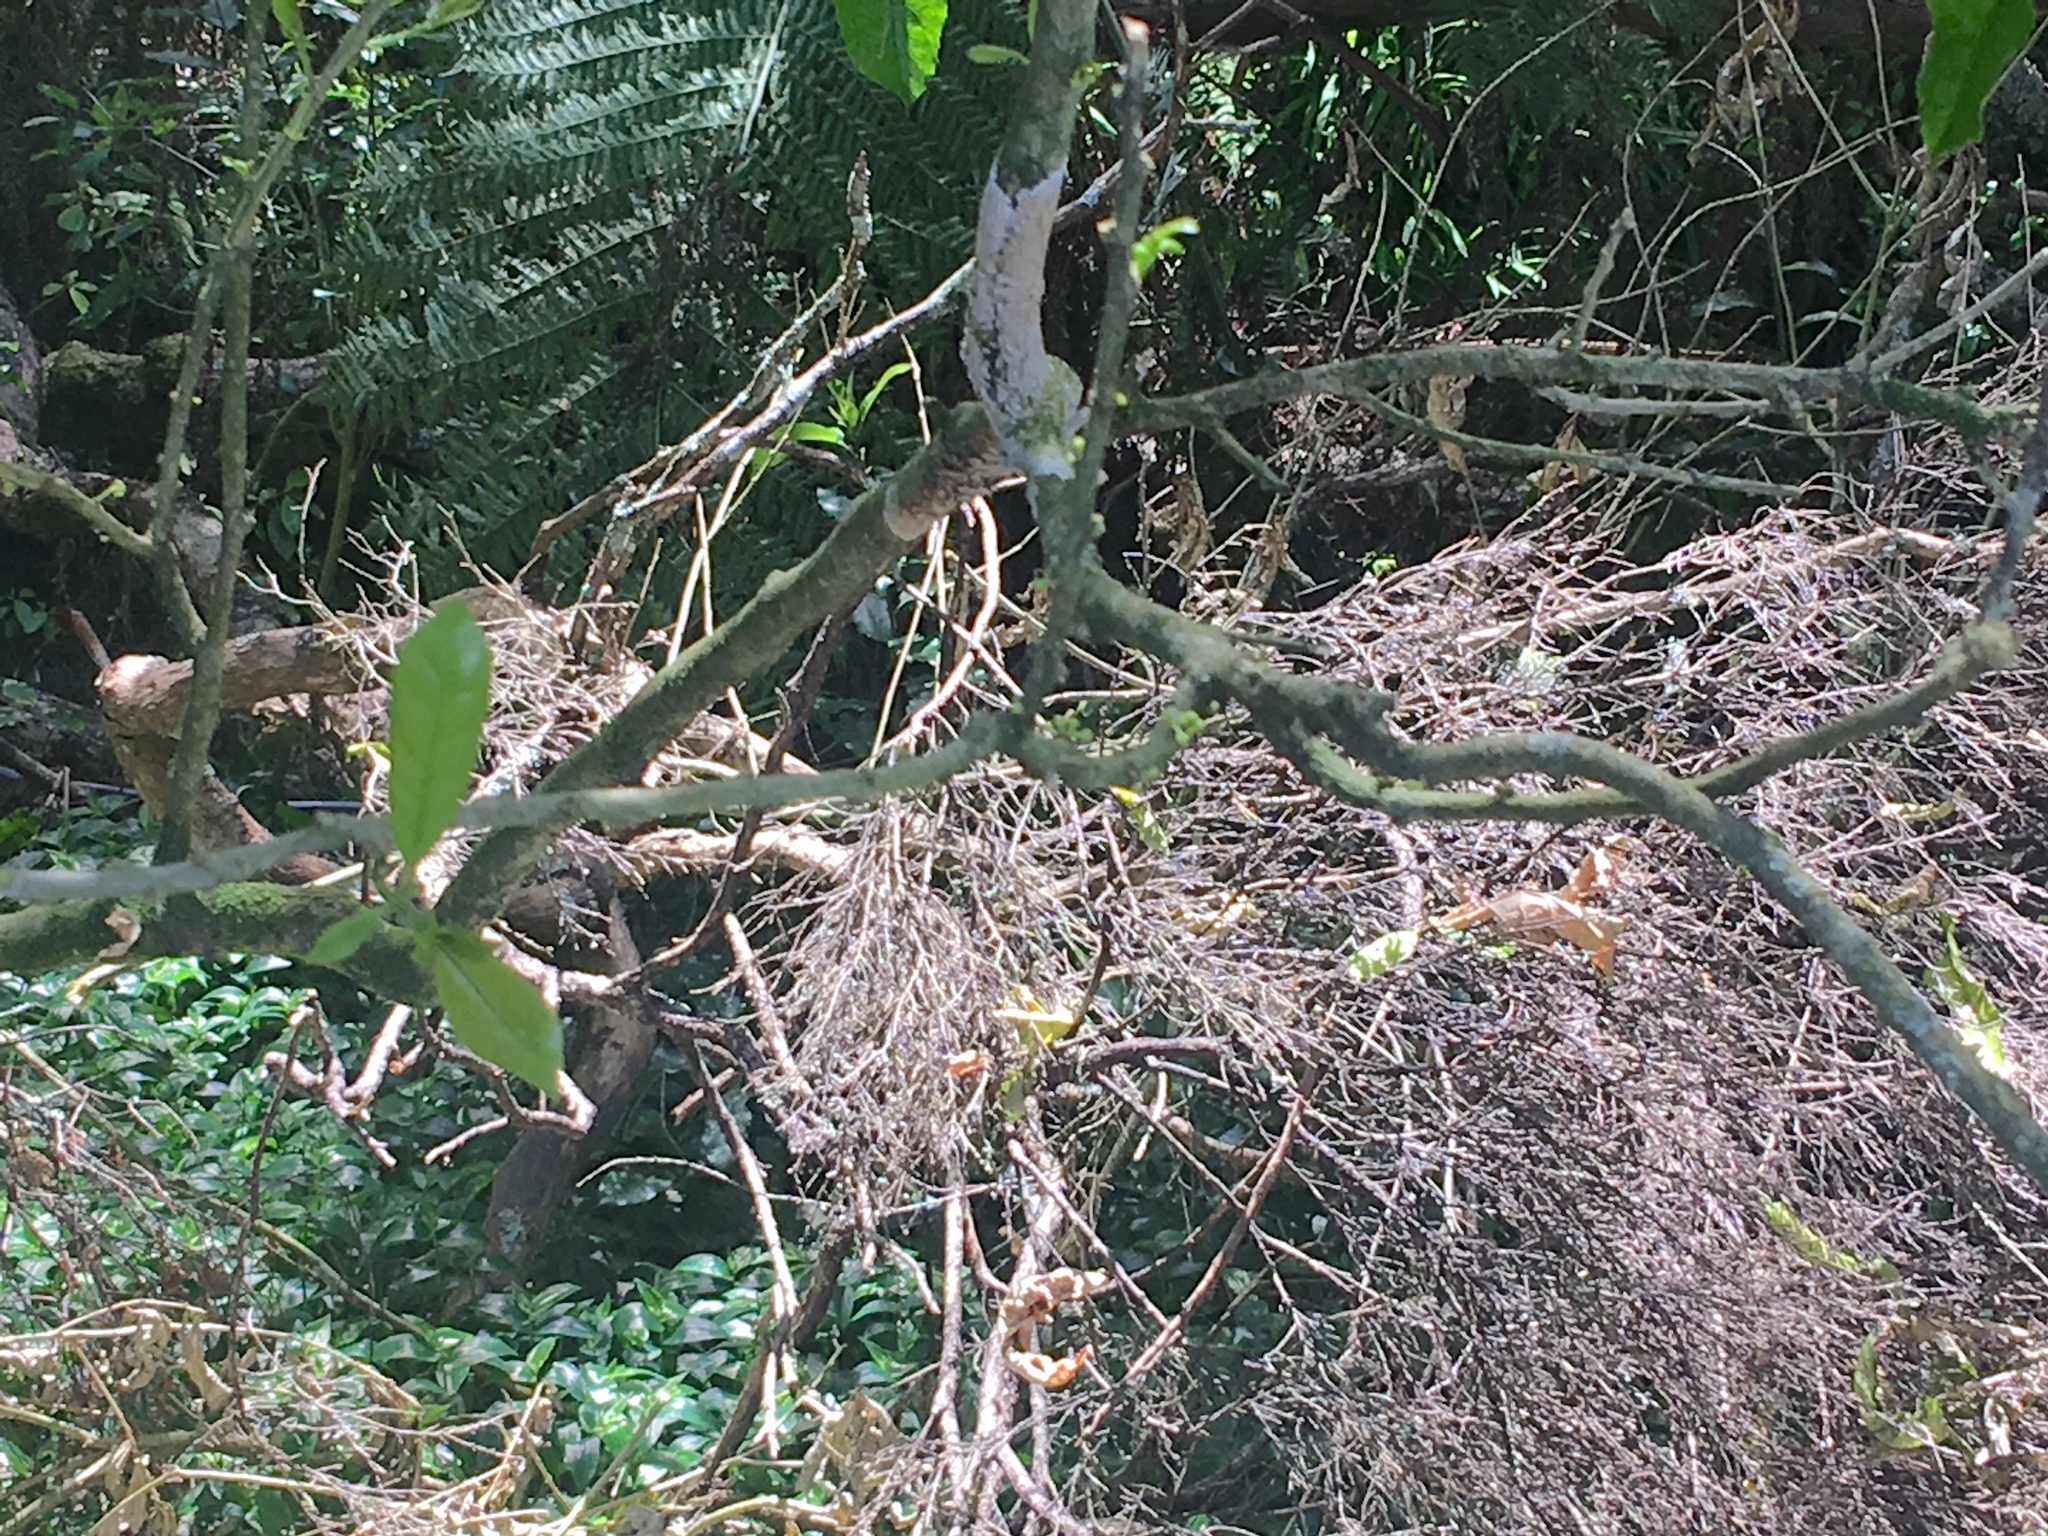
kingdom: Plantae
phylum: Tracheophyta
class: Liliopsida
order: Commelinales
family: Commelinaceae
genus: Tradescantia
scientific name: Tradescantia fluminensis
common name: Wandering-jew
